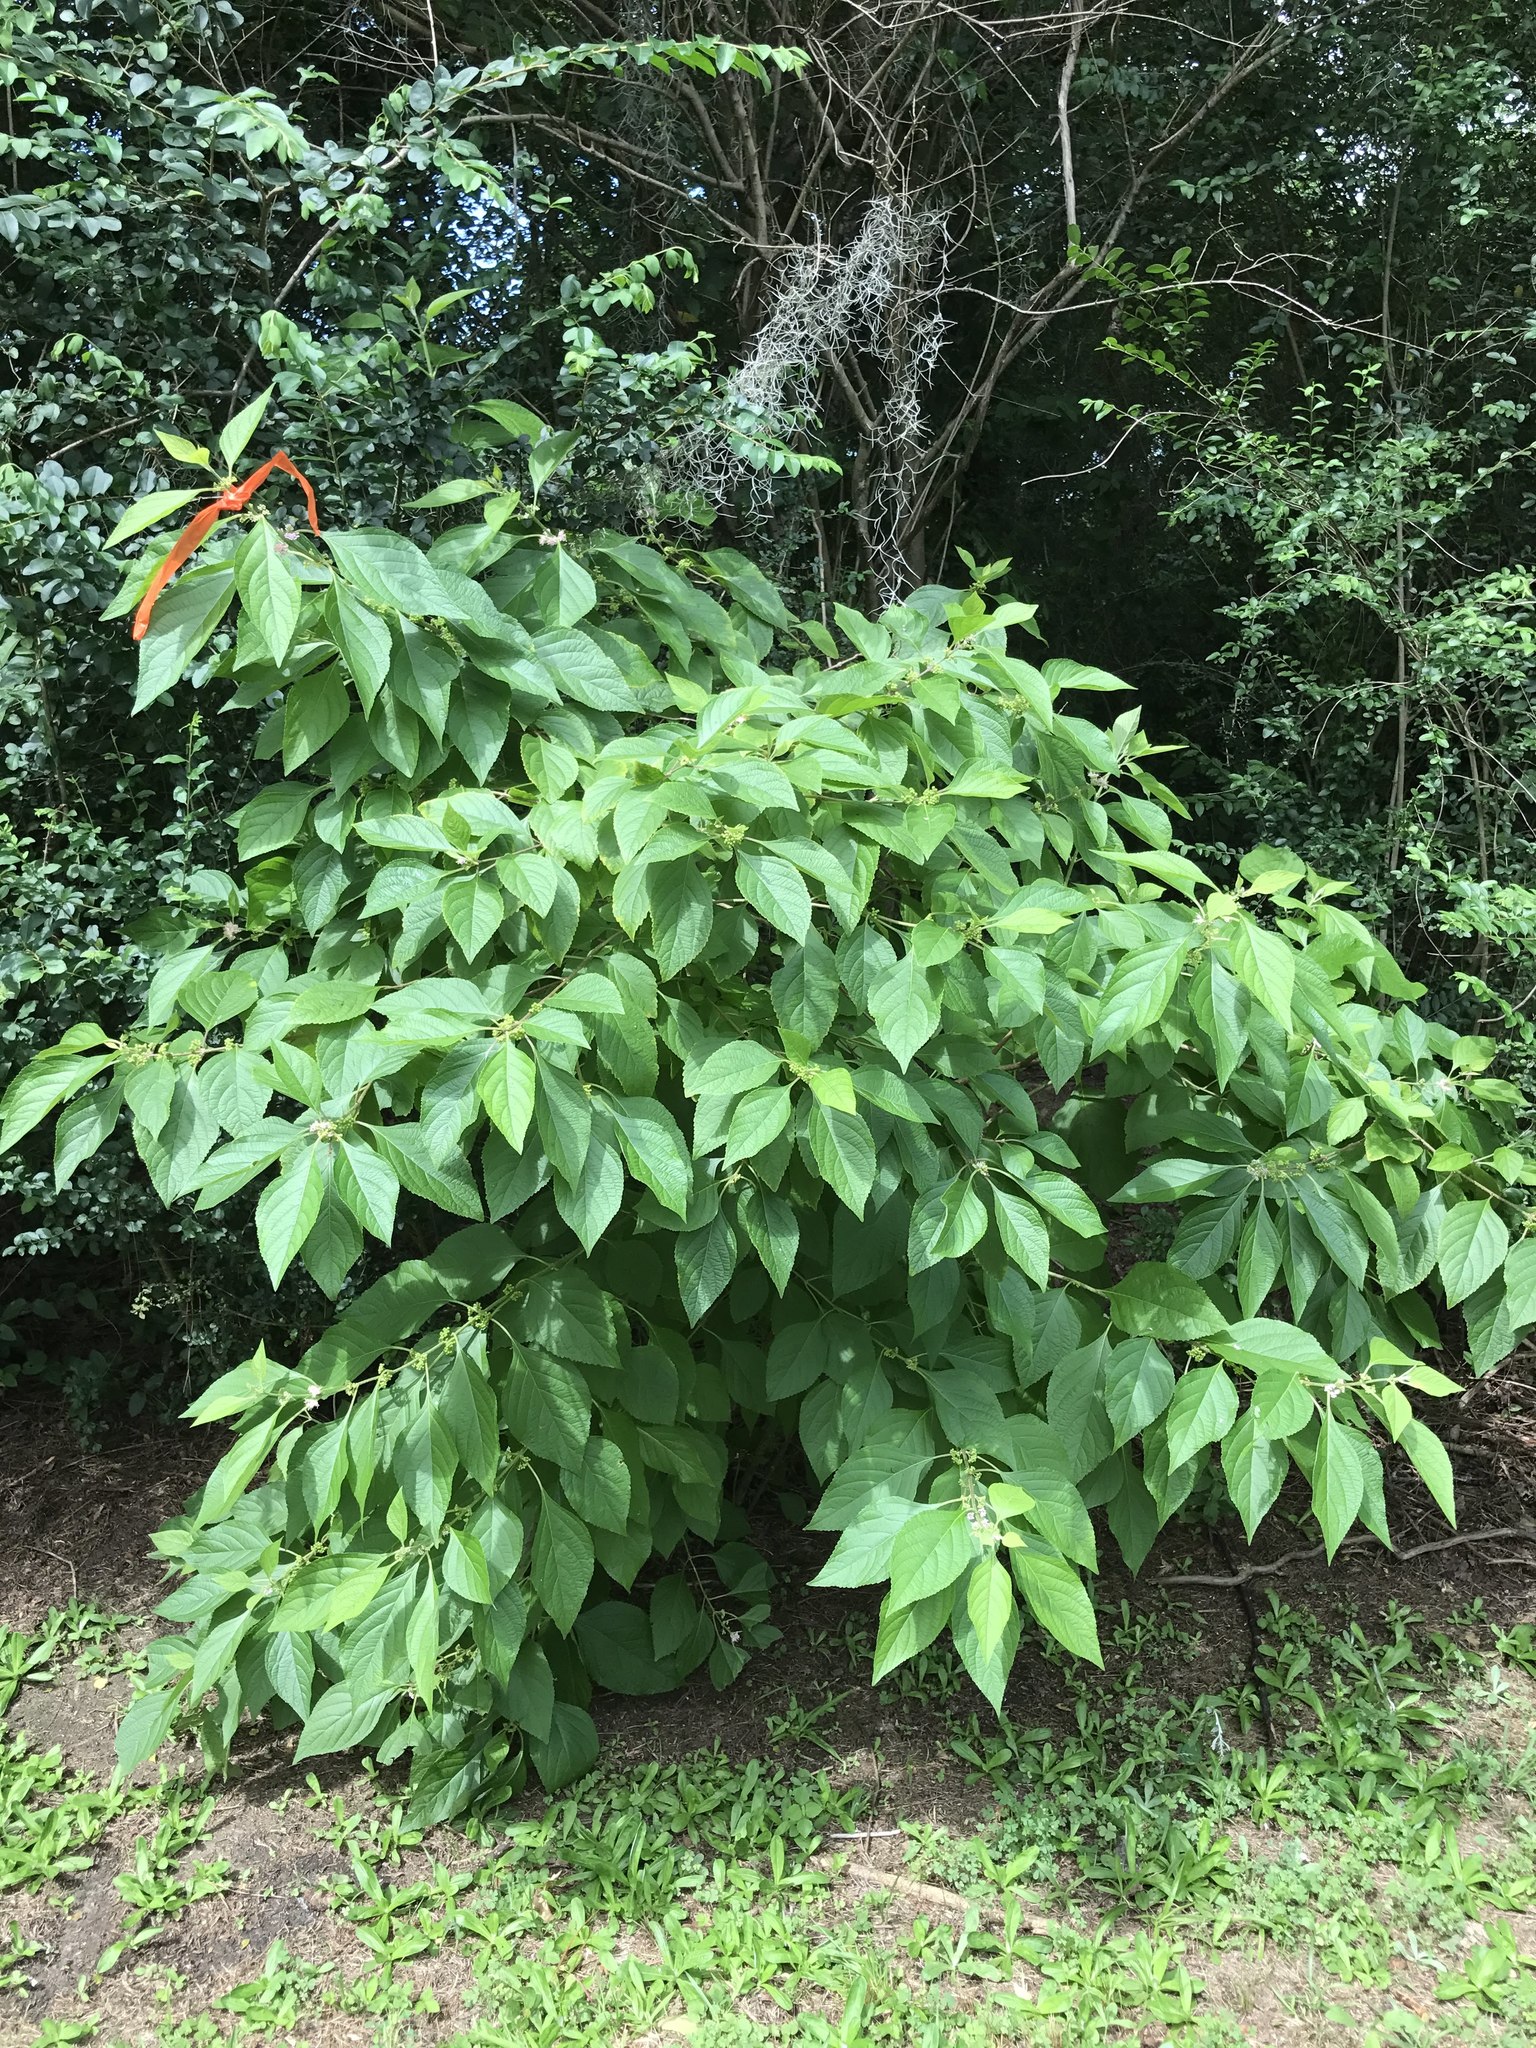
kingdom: Plantae
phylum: Tracheophyta
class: Magnoliopsida
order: Lamiales
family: Lamiaceae
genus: Callicarpa
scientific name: Callicarpa americana
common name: American beautyberry
